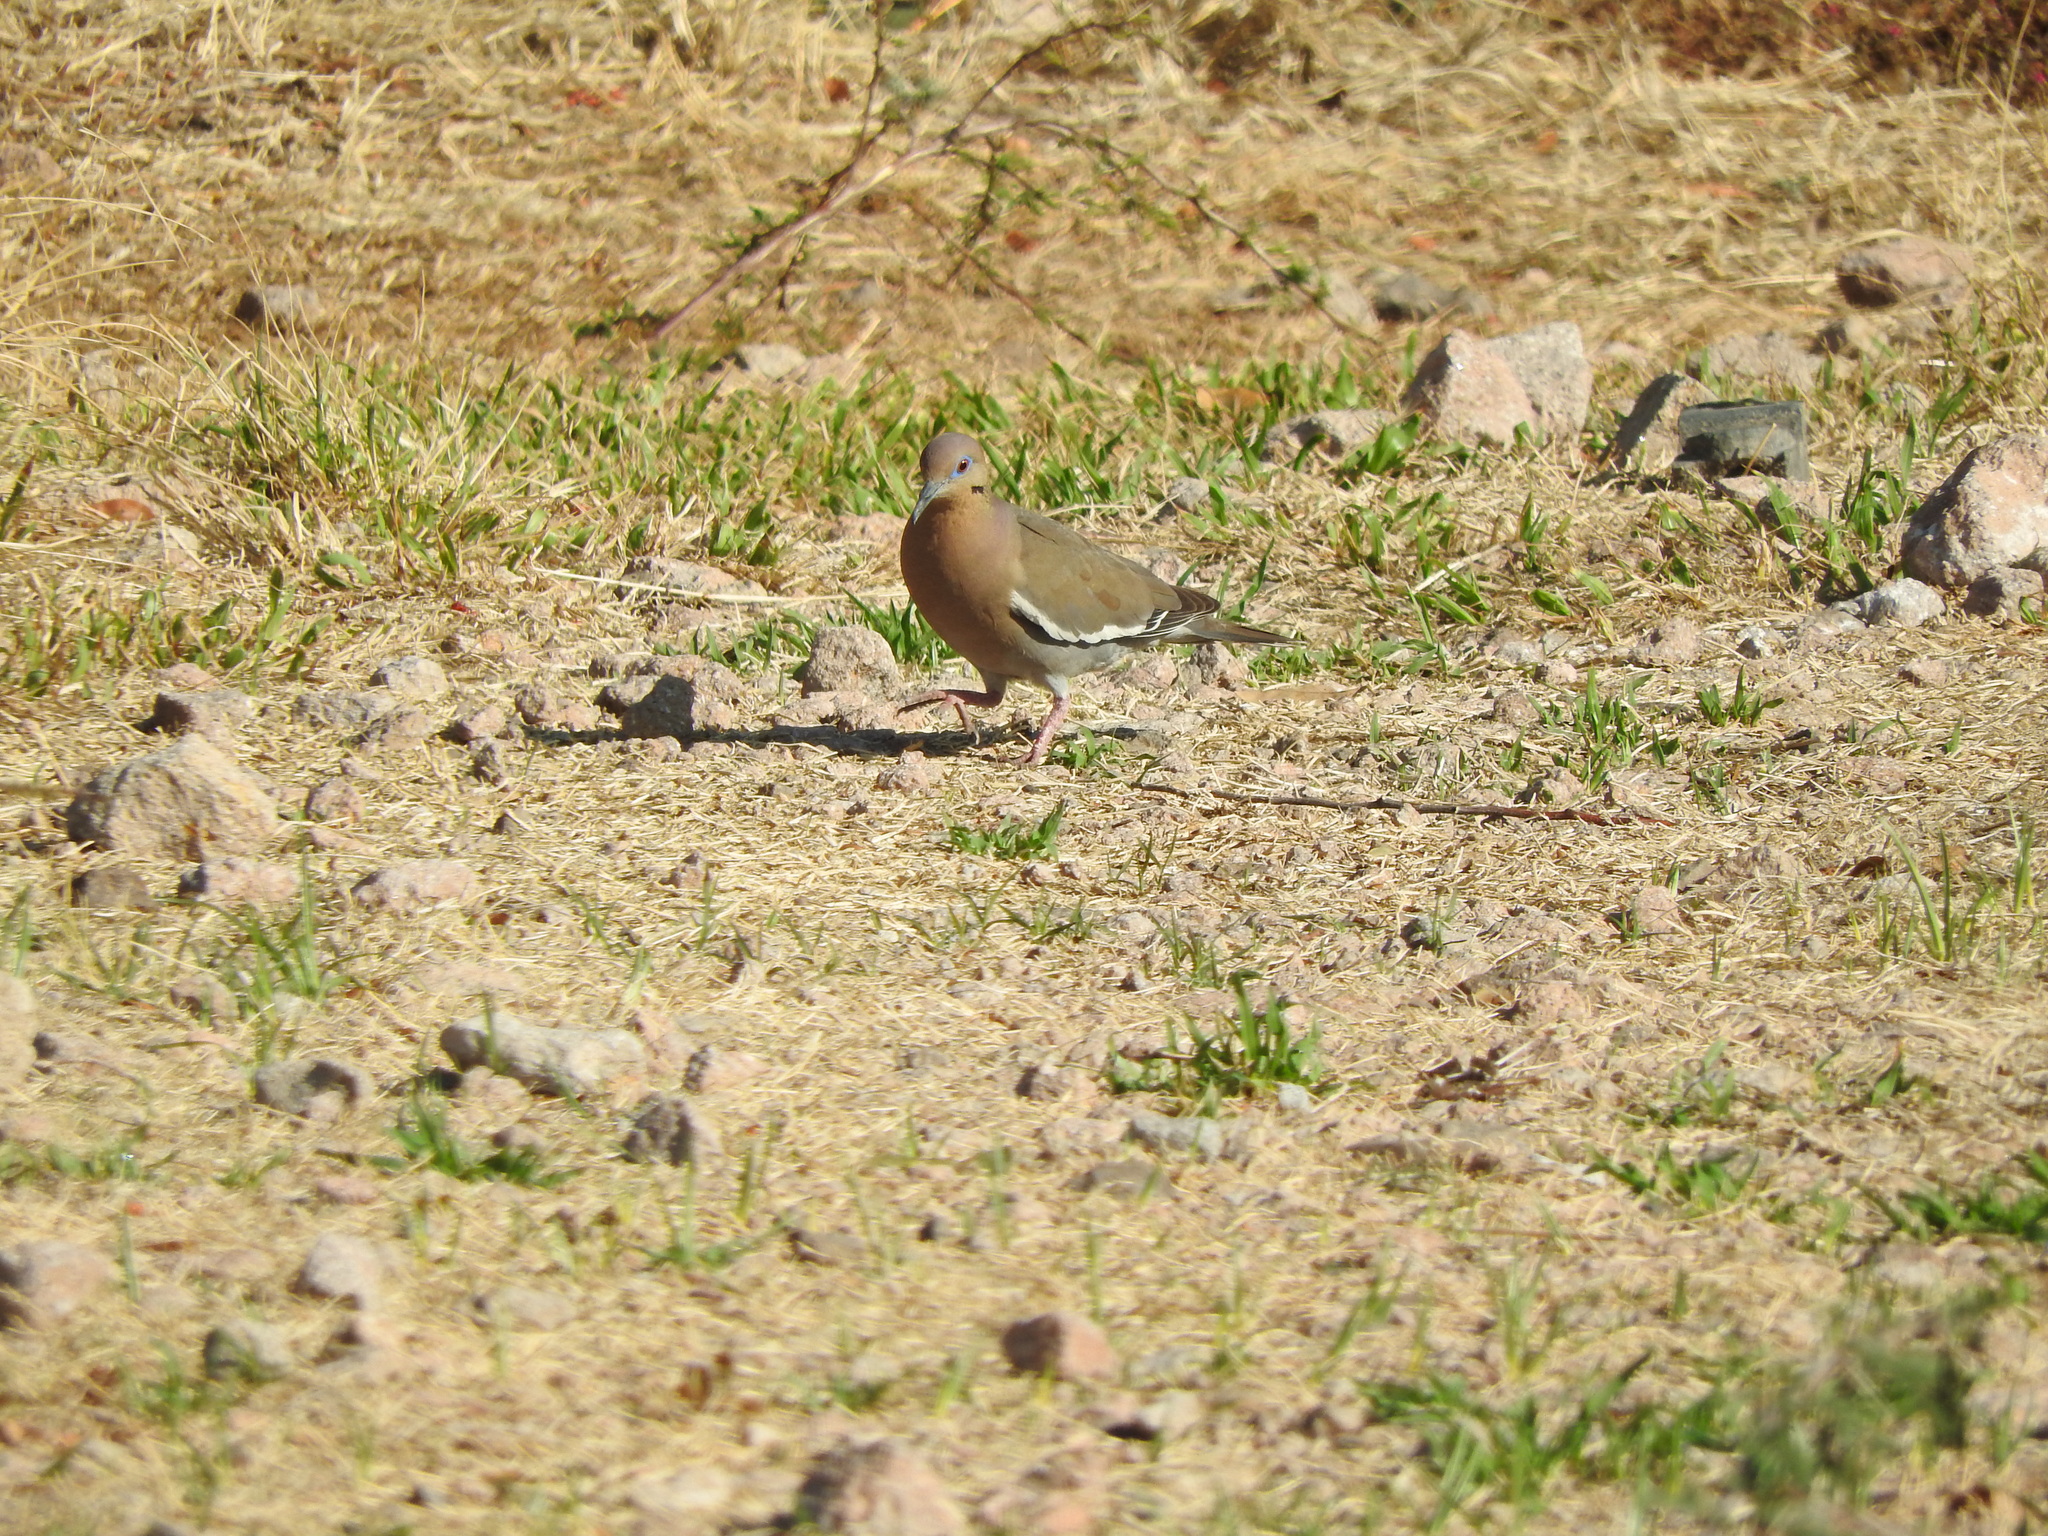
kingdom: Animalia
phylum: Chordata
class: Aves
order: Columbiformes
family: Columbidae
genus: Zenaida
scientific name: Zenaida asiatica
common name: White-winged dove
